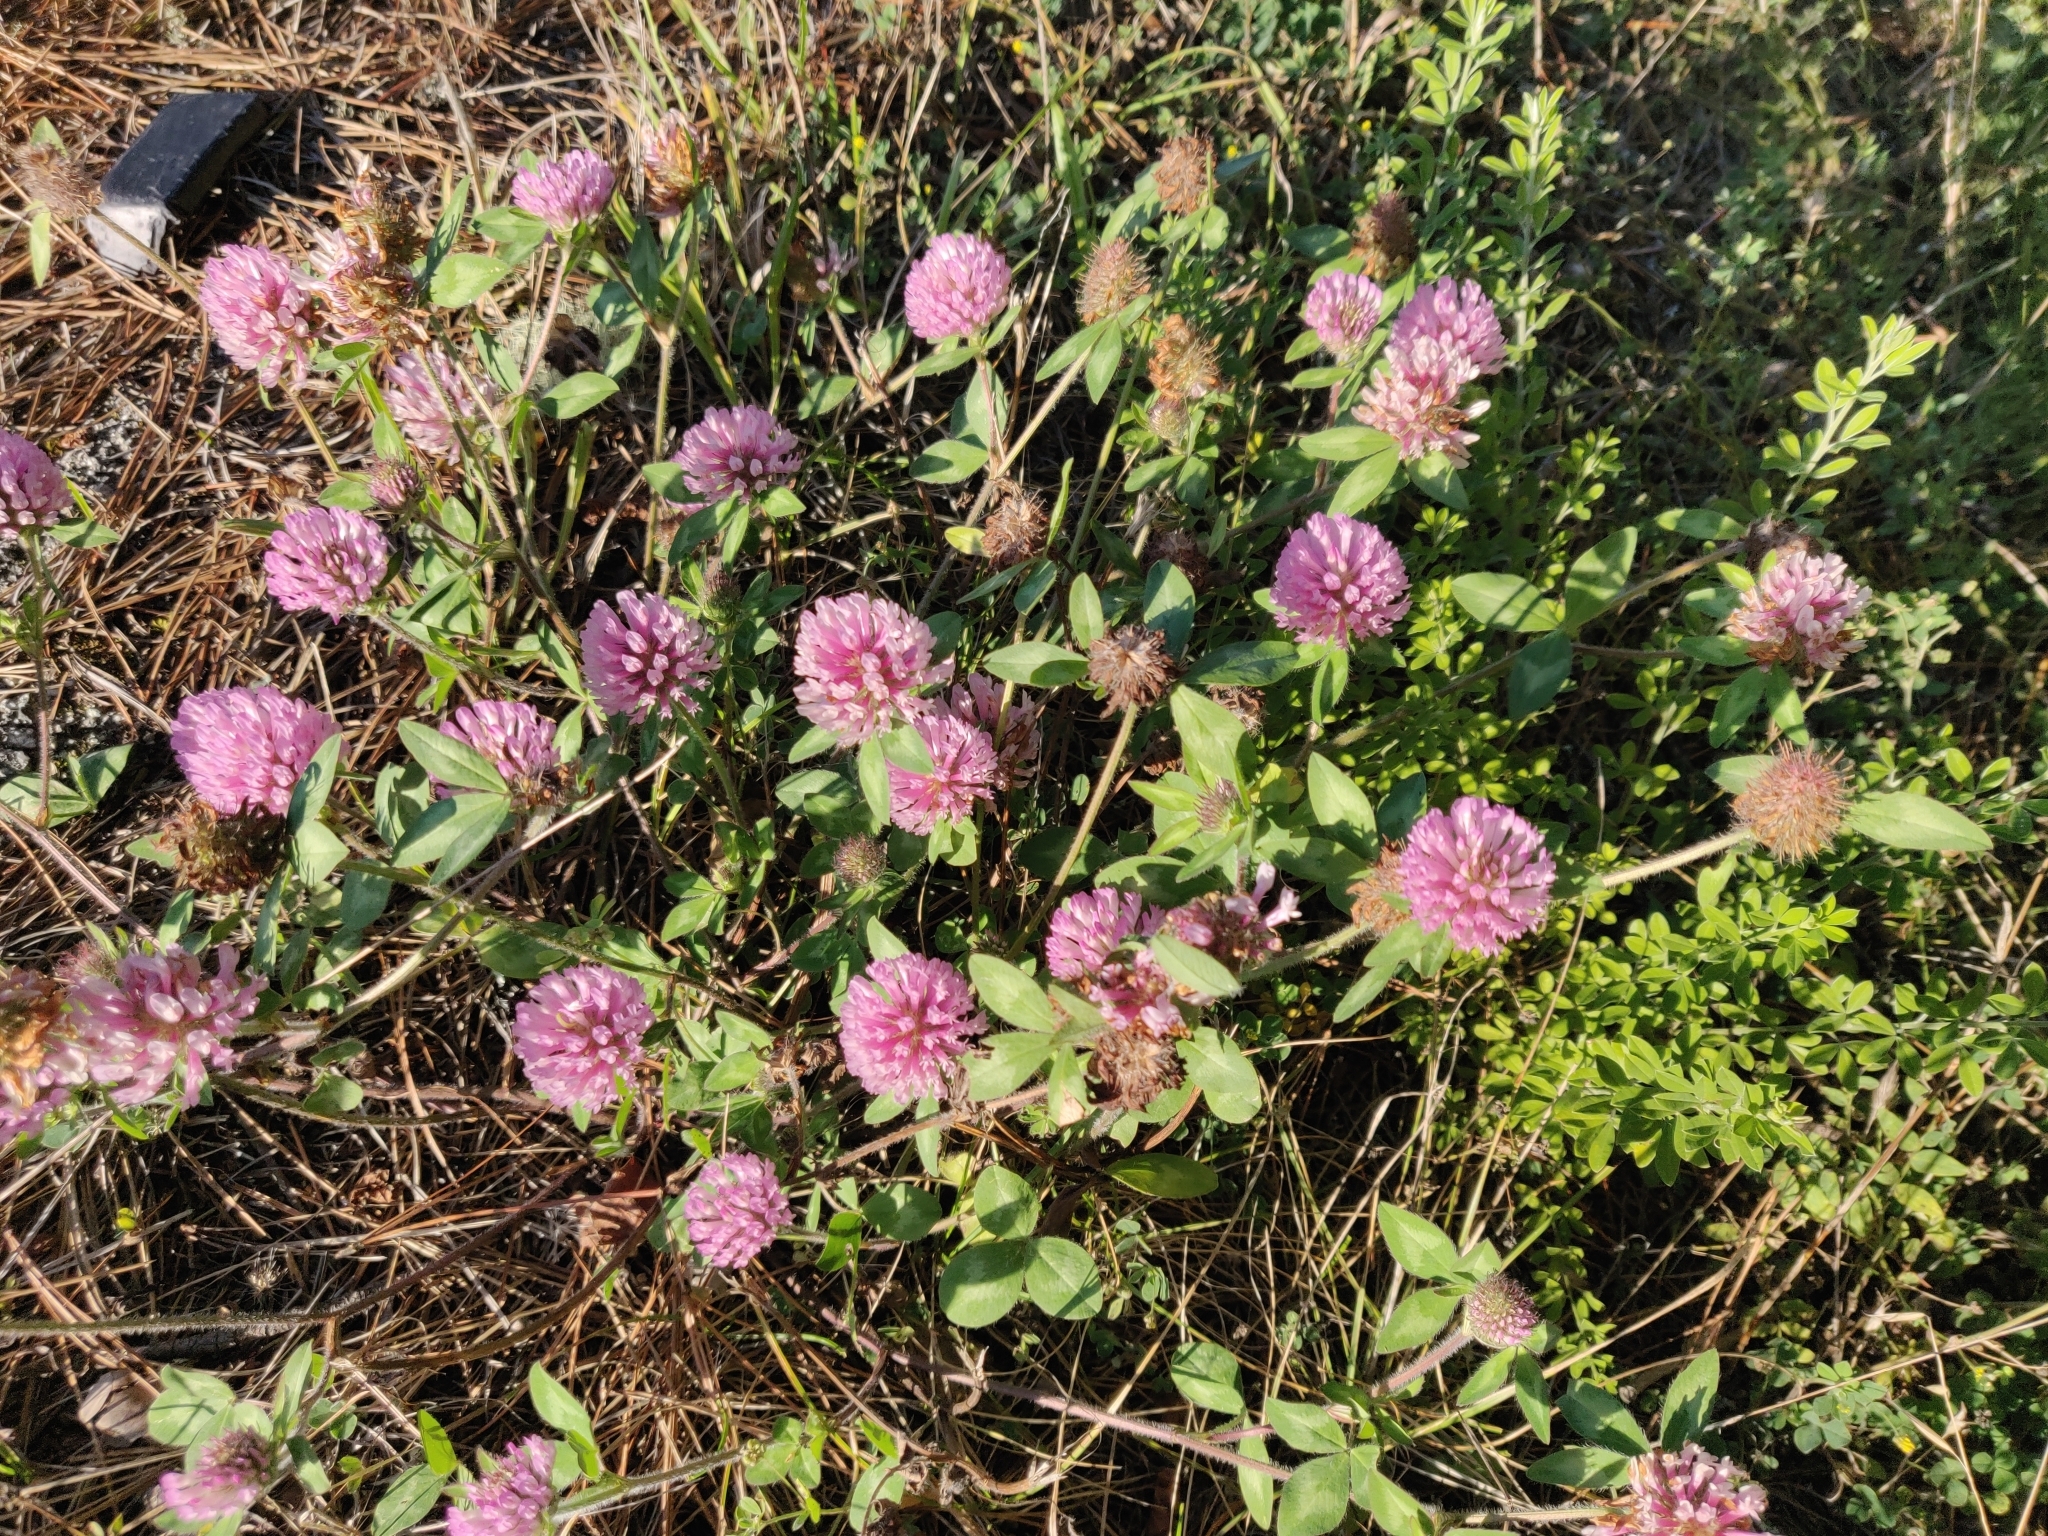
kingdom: Plantae
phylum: Tracheophyta
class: Magnoliopsida
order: Fabales
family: Fabaceae
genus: Trifolium
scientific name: Trifolium pratense
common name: Red clover
